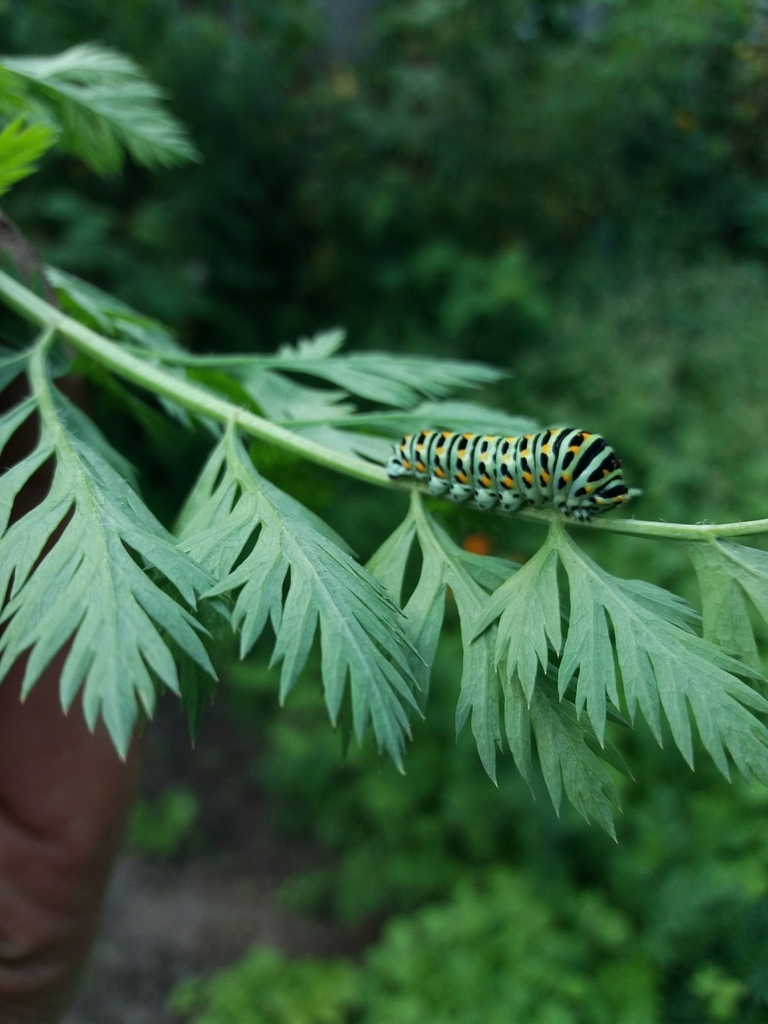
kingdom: Animalia
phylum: Arthropoda
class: Insecta
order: Lepidoptera
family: Papilionidae
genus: Papilio
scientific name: Papilio machaon
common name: Swallowtail
